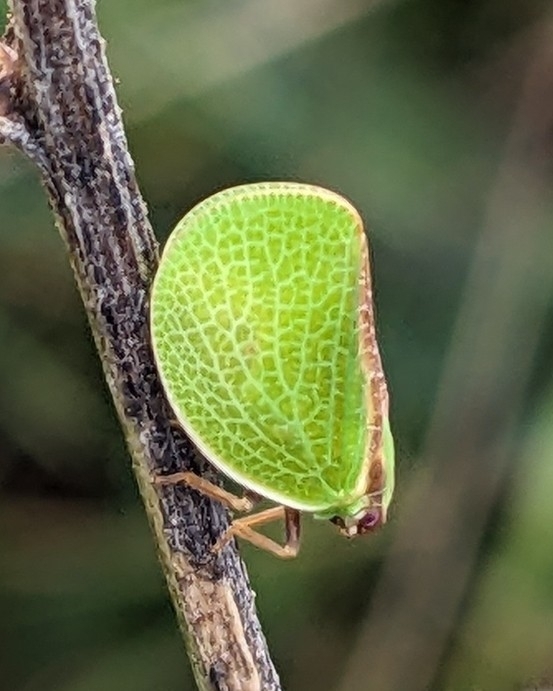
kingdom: Animalia
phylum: Arthropoda
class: Insecta
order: Hemiptera
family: Acanaloniidae
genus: Acanalonia
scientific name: Acanalonia bivittata
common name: Two-striped planthopper
